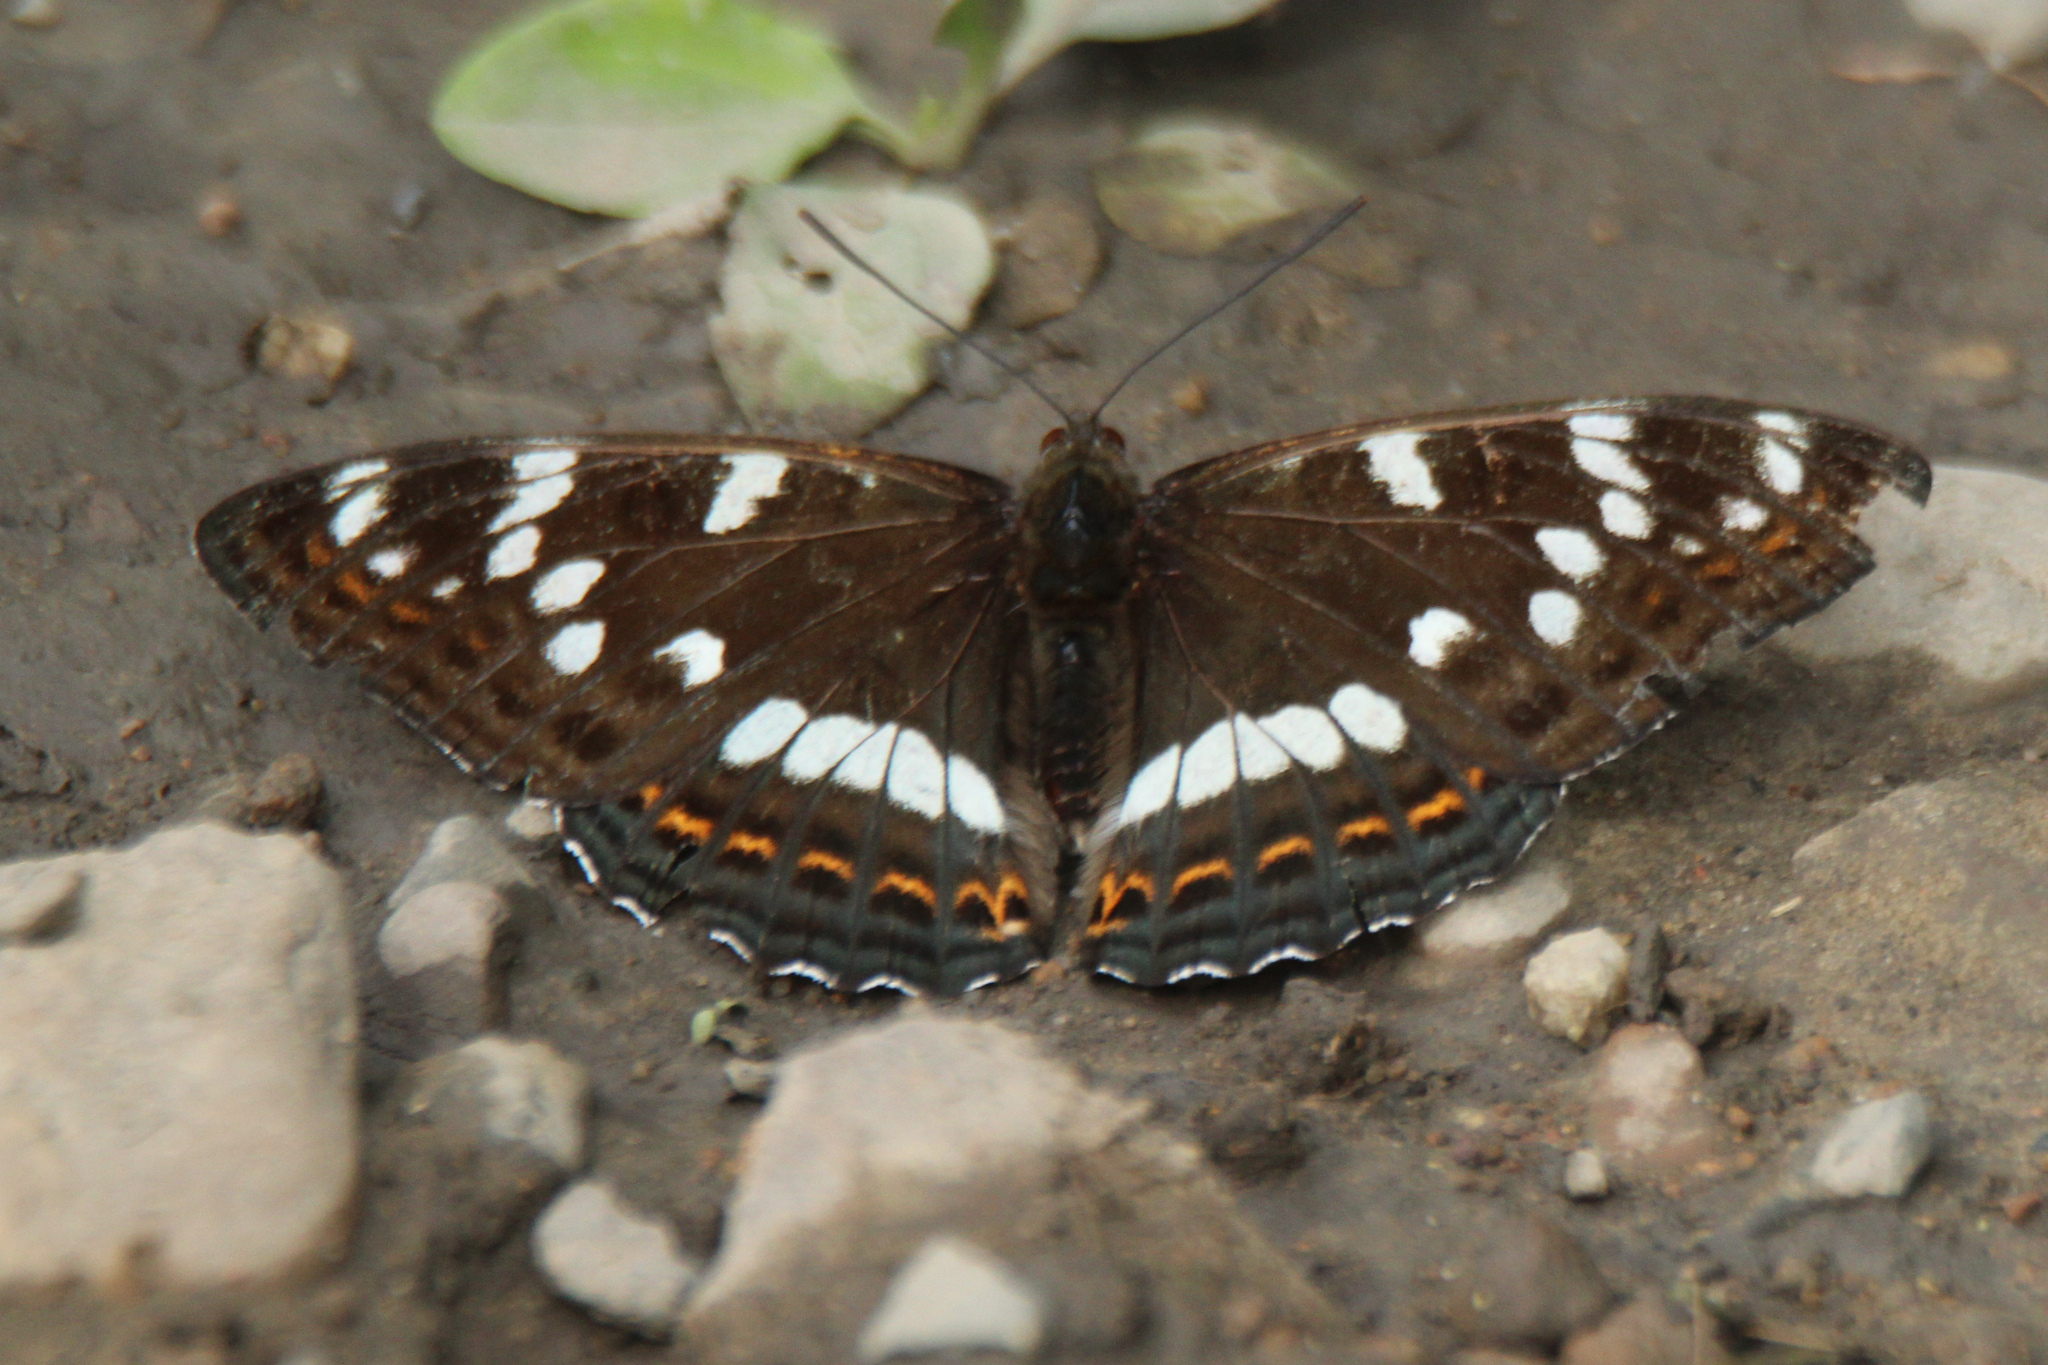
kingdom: Animalia
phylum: Arthropoda
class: Insecta
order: Lepidoptera
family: Nymphalidae
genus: Limenitis
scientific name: Limenitis populi
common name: Poplar admiral
